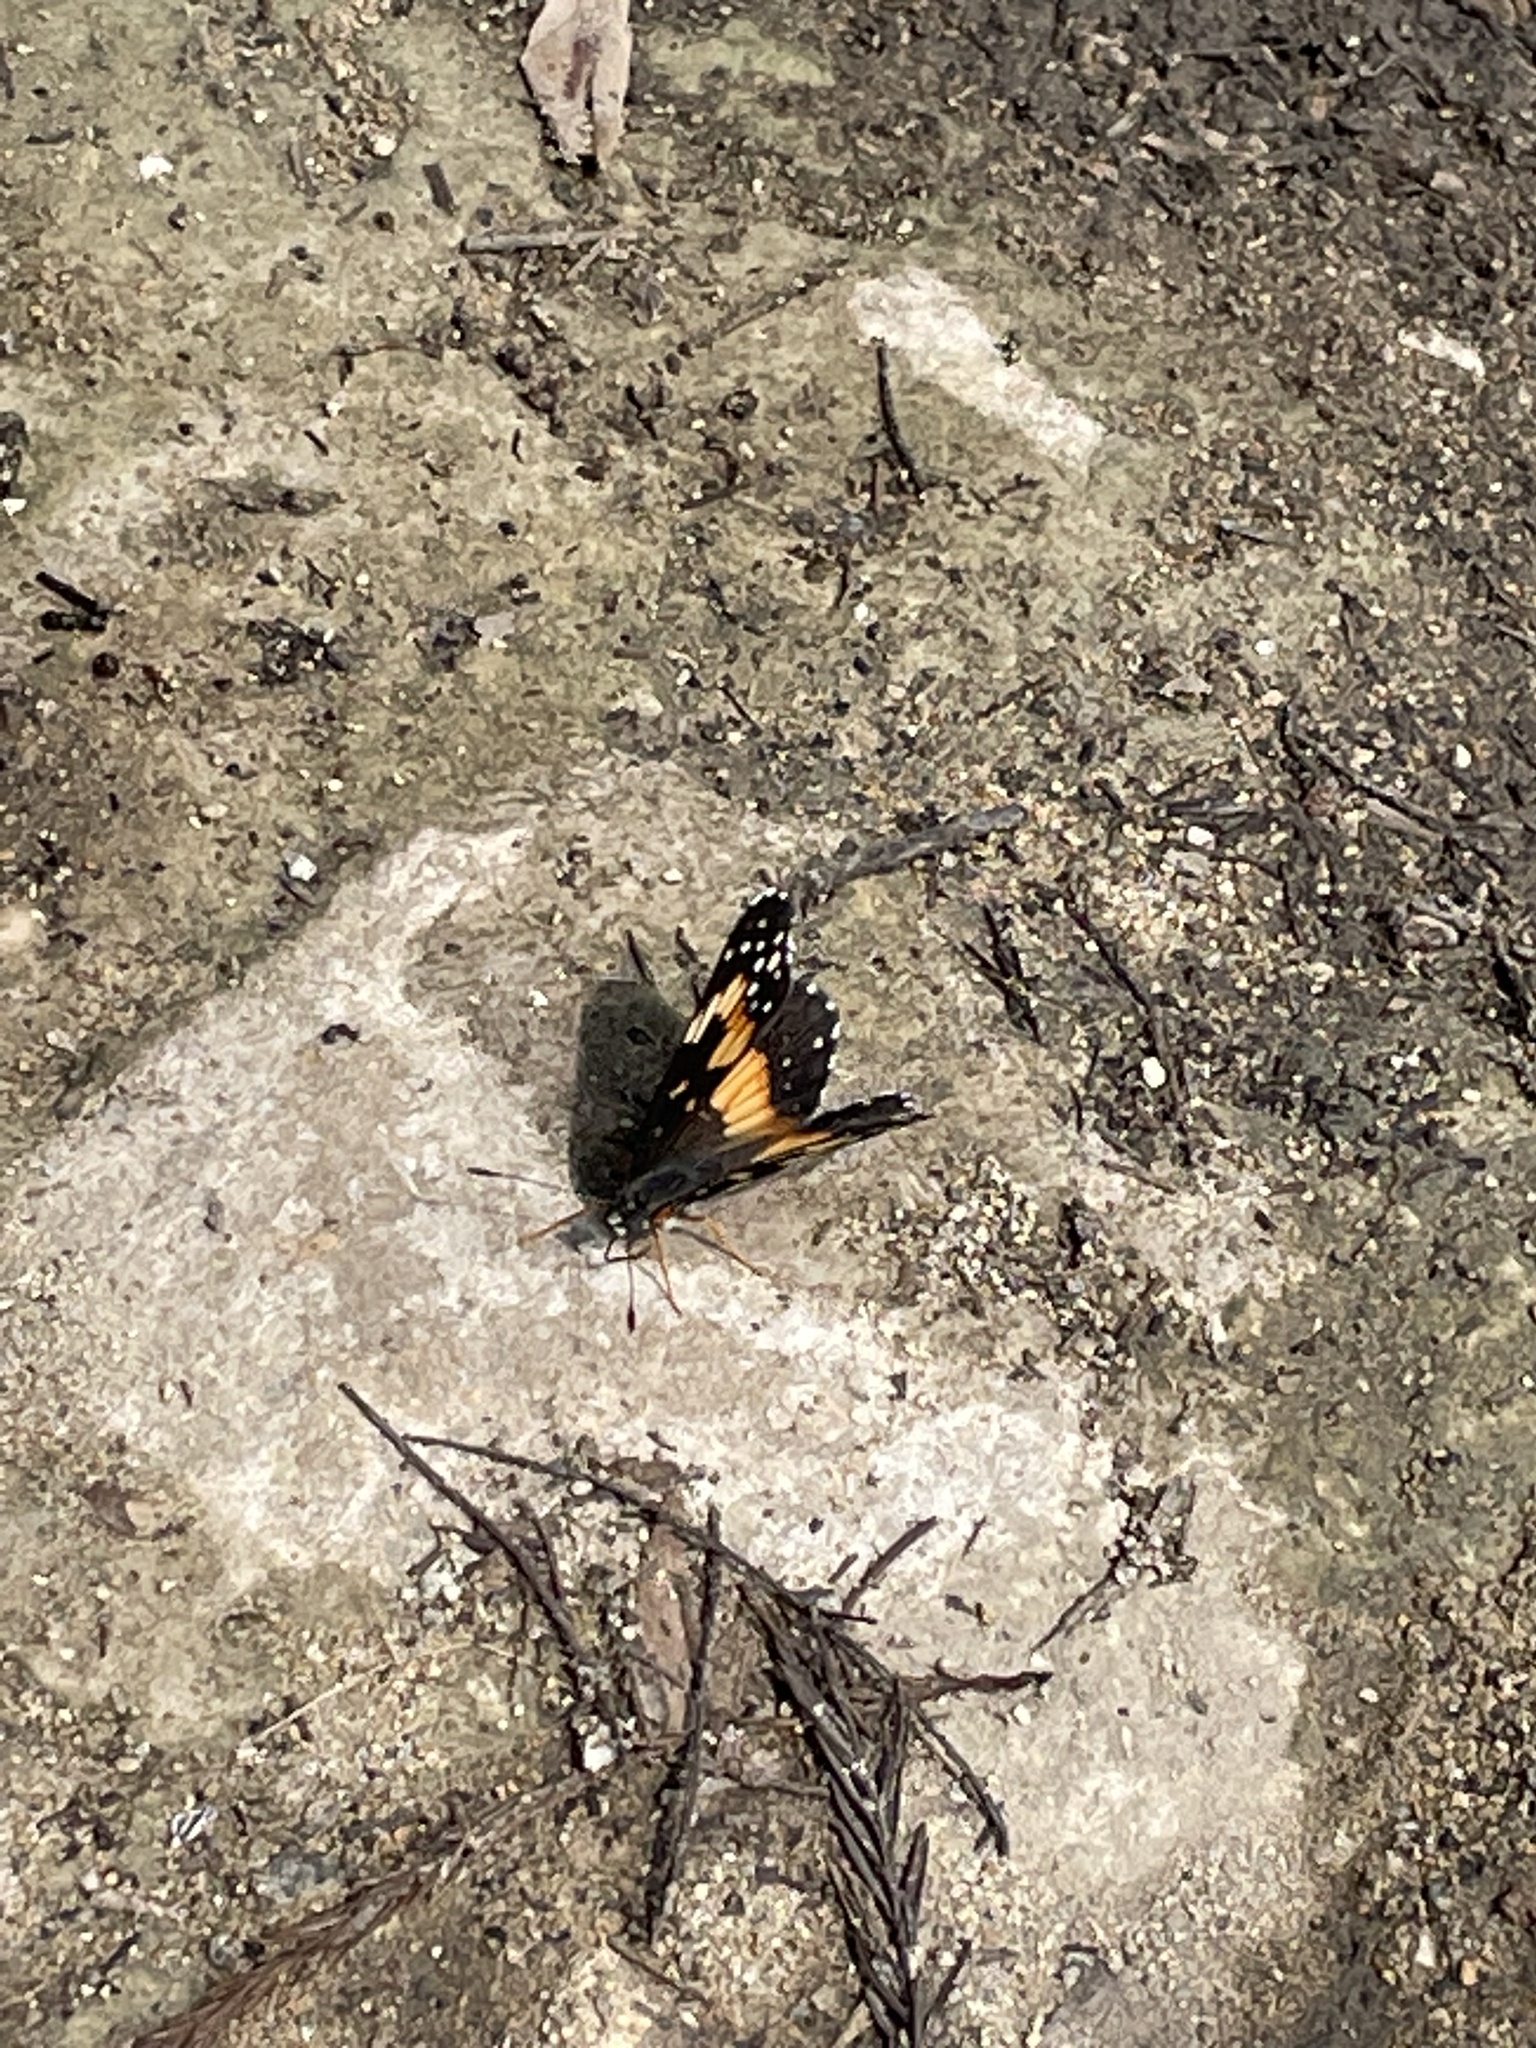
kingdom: Animalia
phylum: Arthropoda
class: Insecta
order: Lepidoptera
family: Nymphalidae
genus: Chlosyne
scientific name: Chlosyne lacinia
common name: Bordered patch
